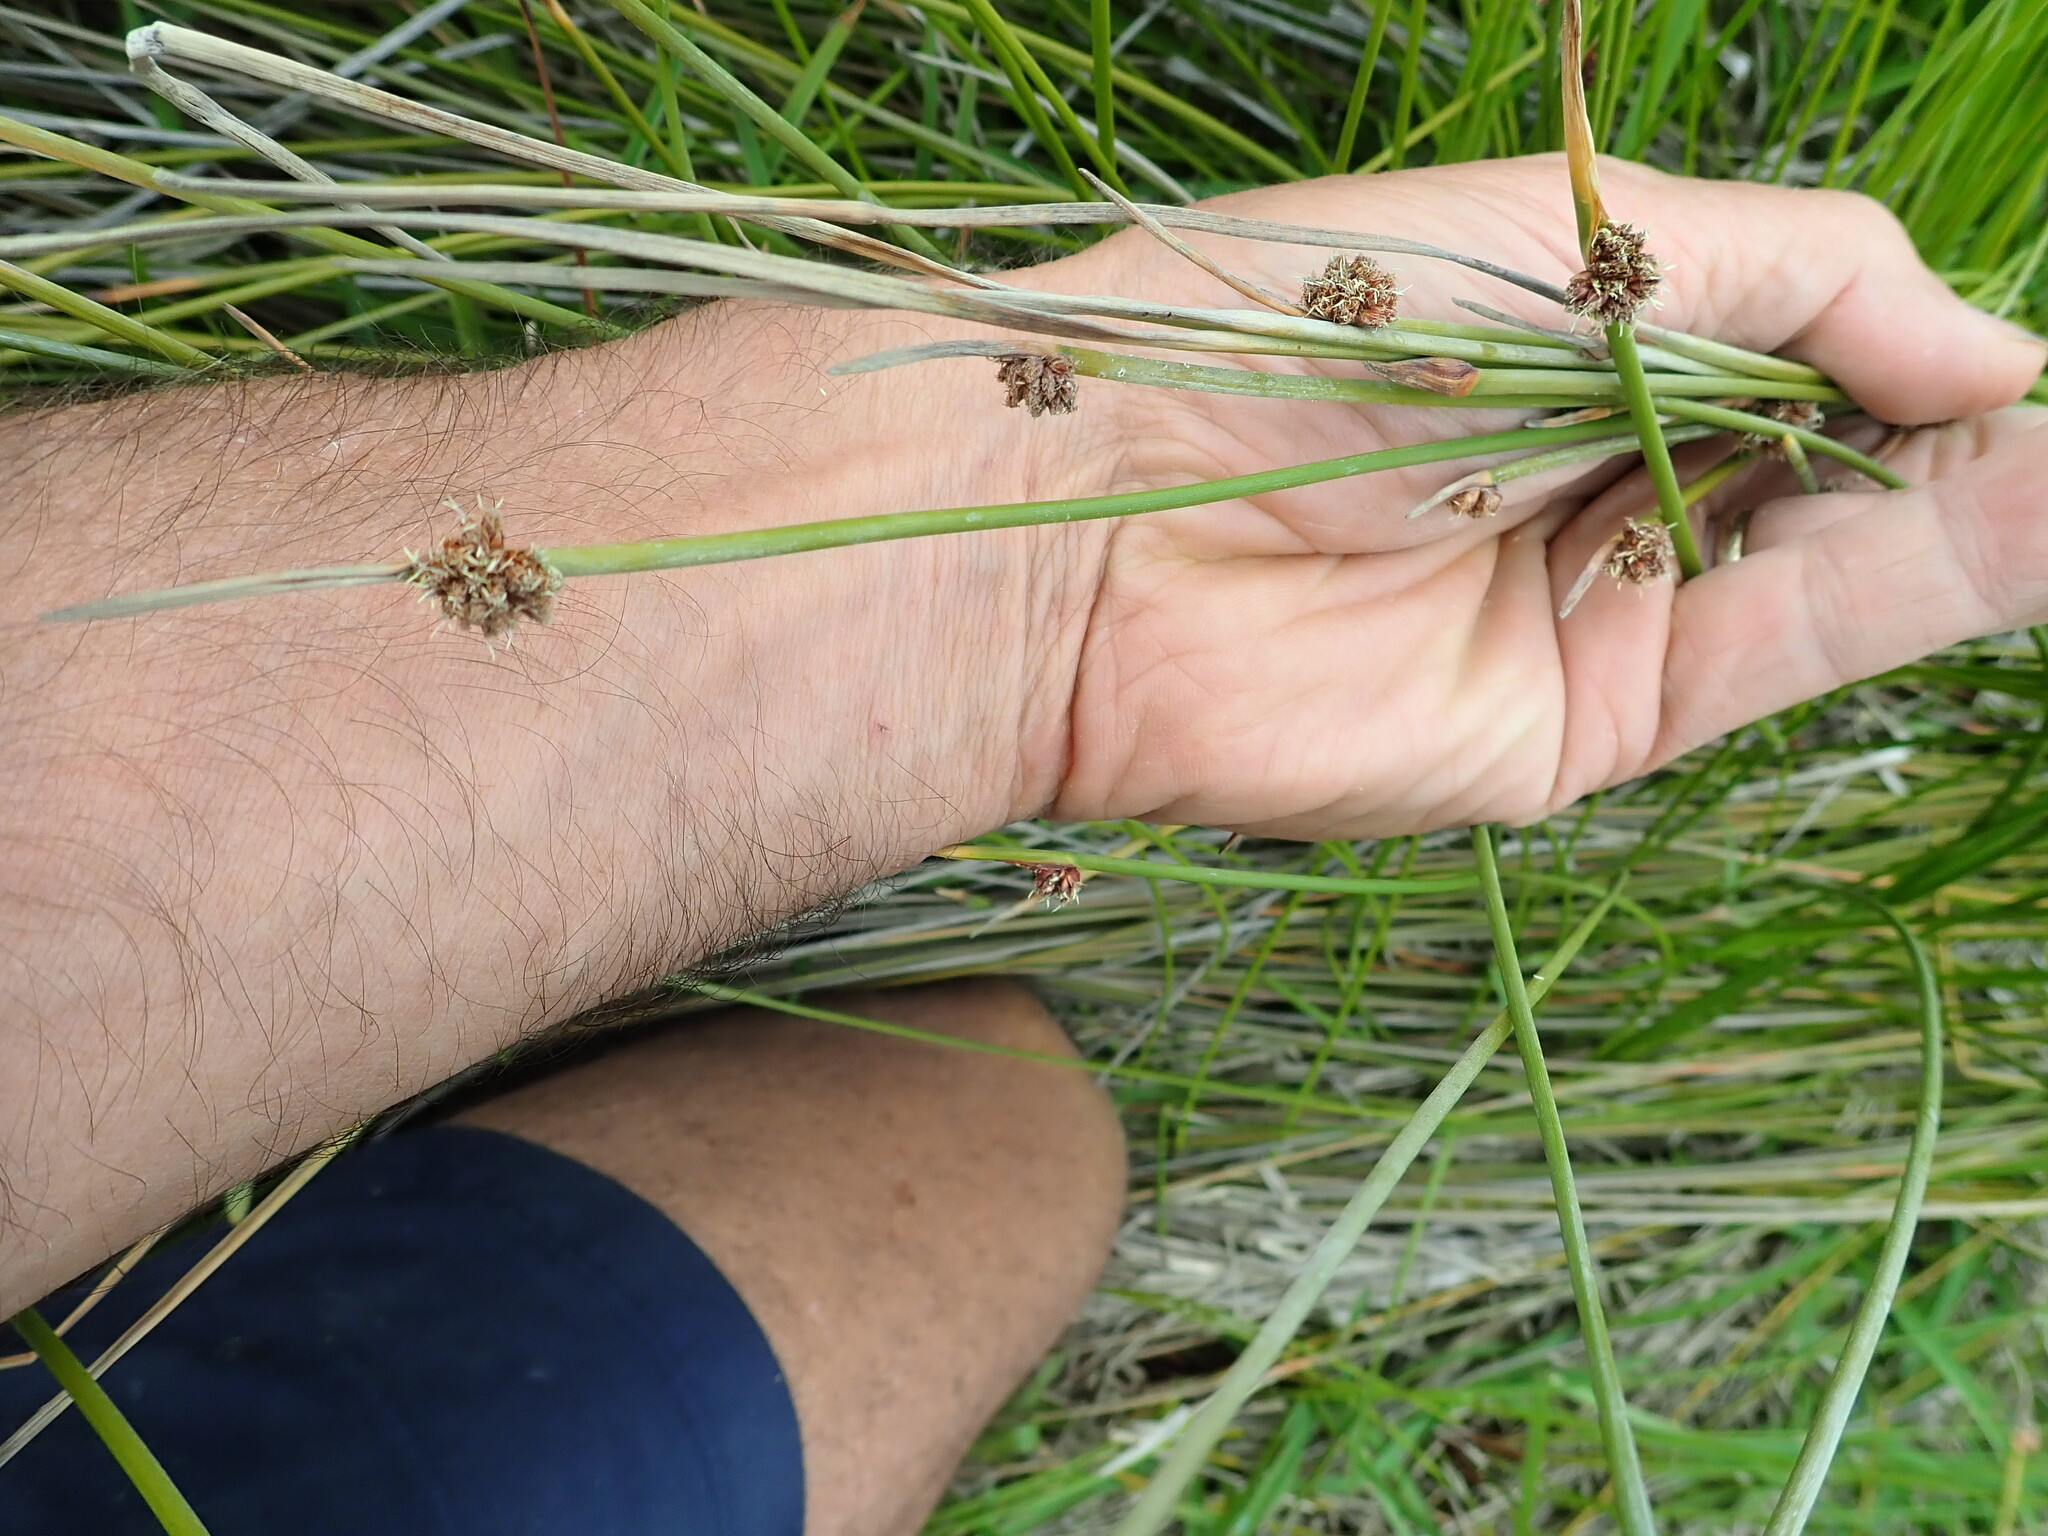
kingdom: Plantae
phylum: Tracheophyta
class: Liliopsida
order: Poales
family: Cyperaceae
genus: Ficinia
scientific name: Ficinia nodosa
